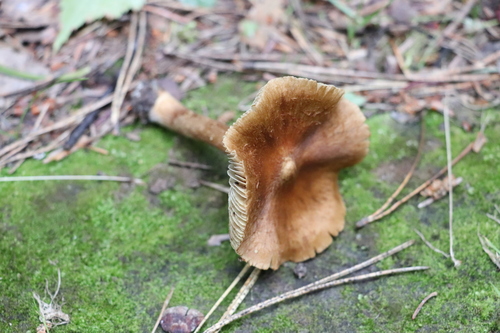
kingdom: Fungi
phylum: Basidiomycota
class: Agaricomycetes
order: Agaricales
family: Inocybaceae
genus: Inosperma
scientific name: Inosperma maculatum
